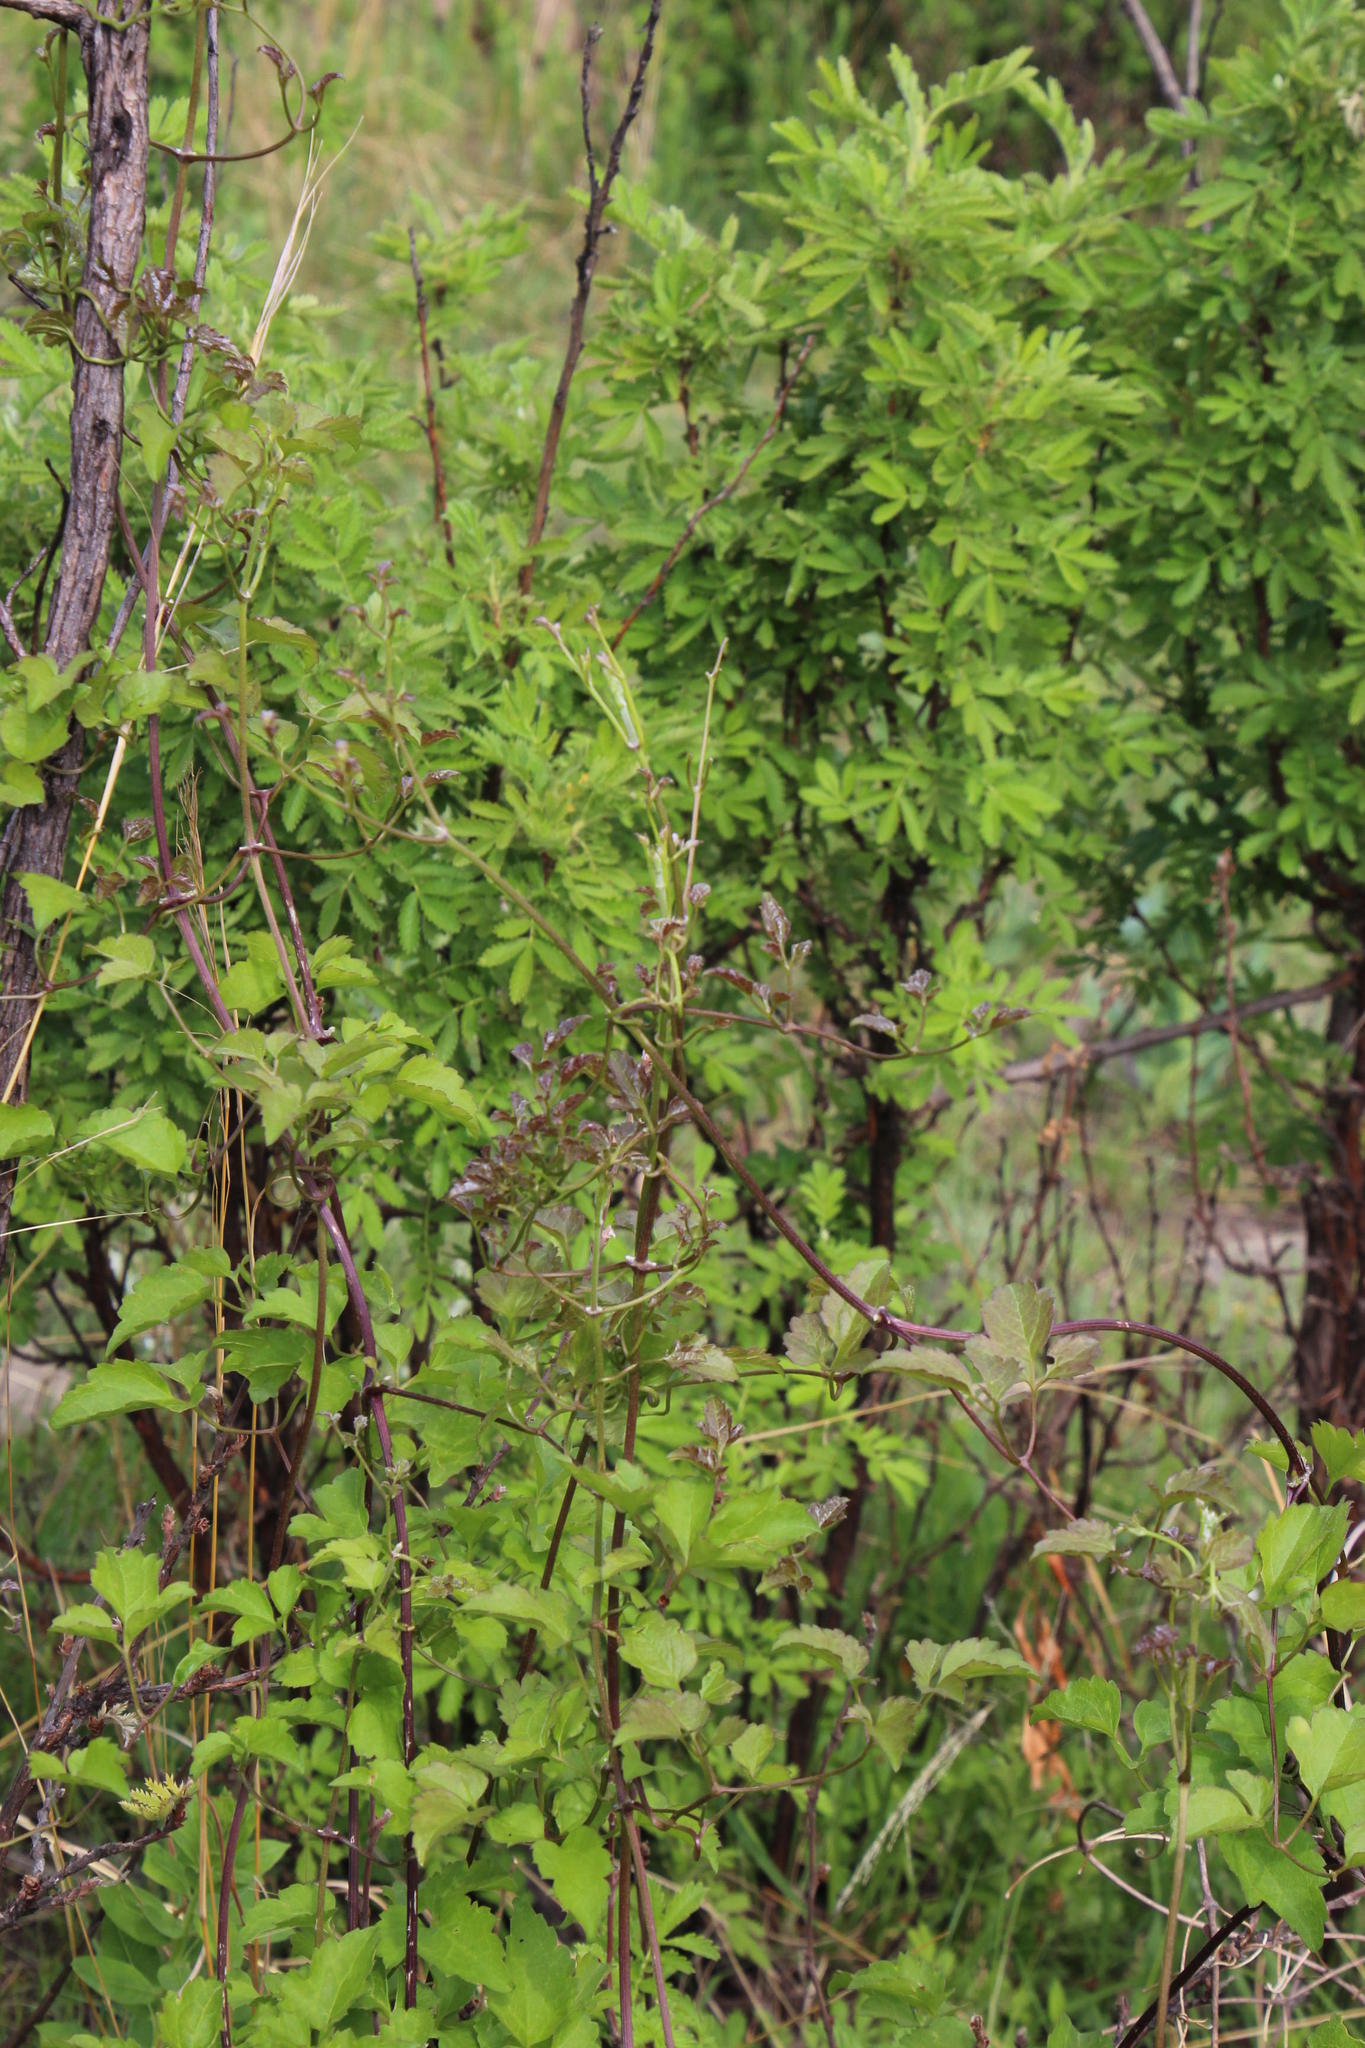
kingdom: Plantae
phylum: Tracheophyta
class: Magnoliopsida
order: Ranunculales
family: Ranunculaceae
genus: Clematis
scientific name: Clematis brachiata
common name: Traveler's-joy
